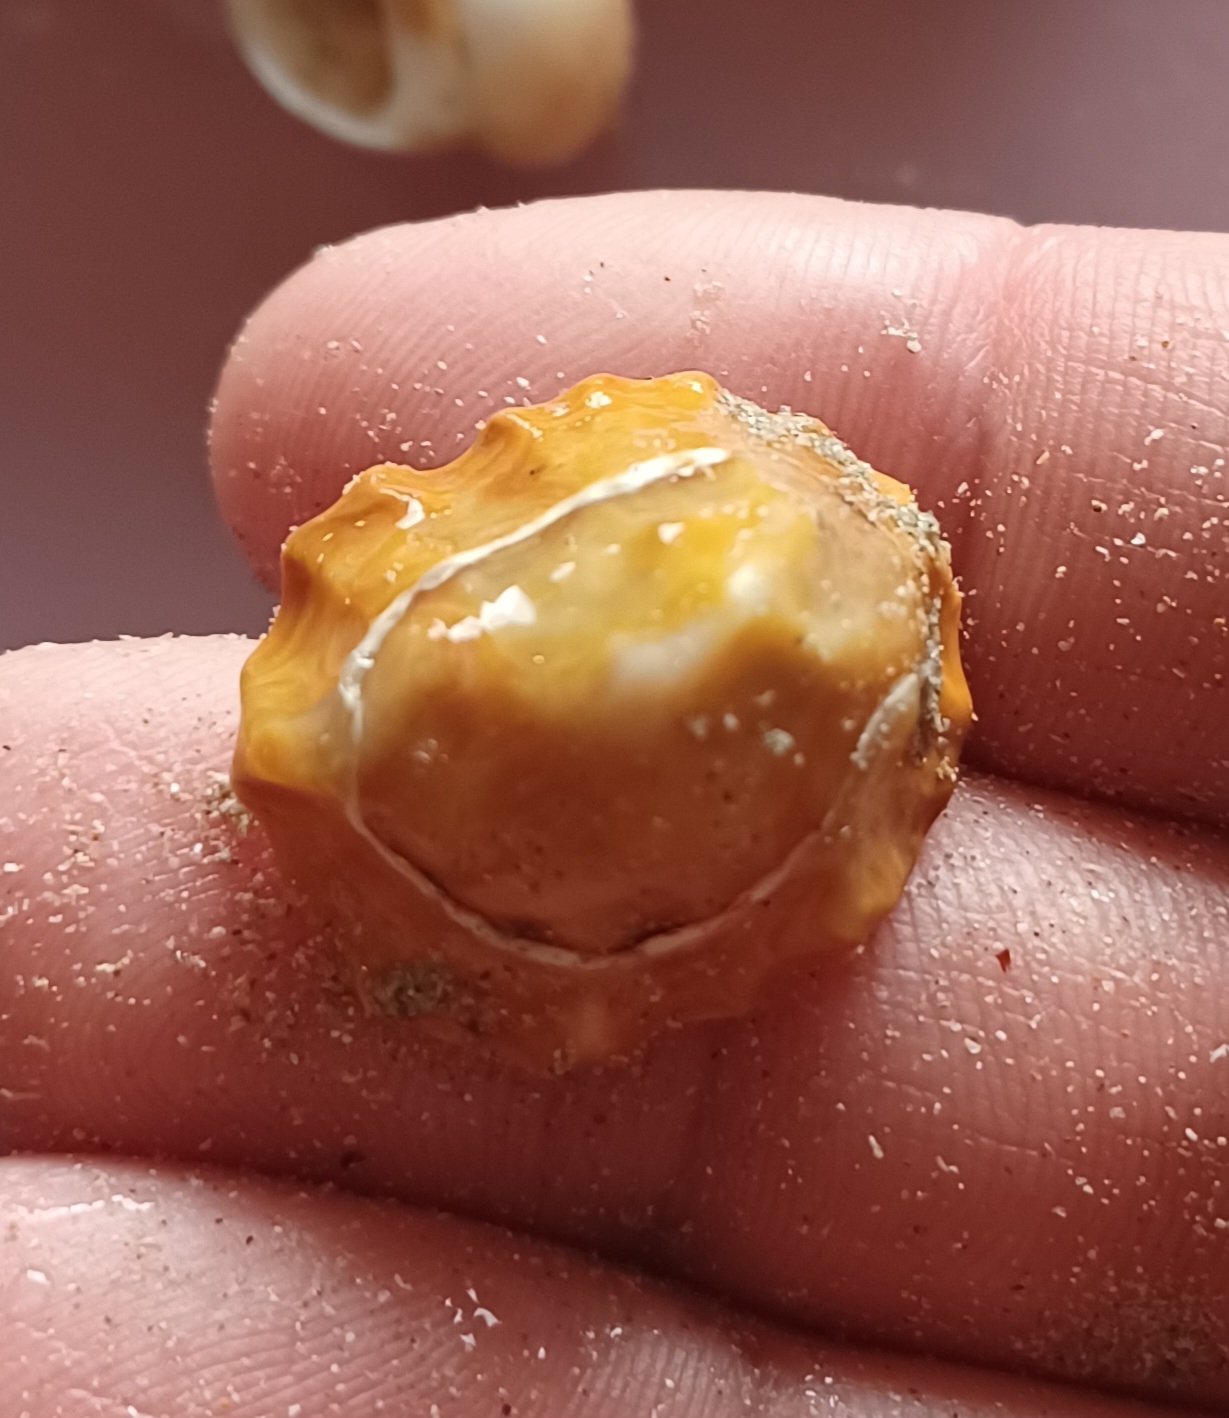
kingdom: Animalia
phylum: Mollusca
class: Gastropoda
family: Lottiidae
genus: Patelloida
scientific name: Patelloida alticostata
